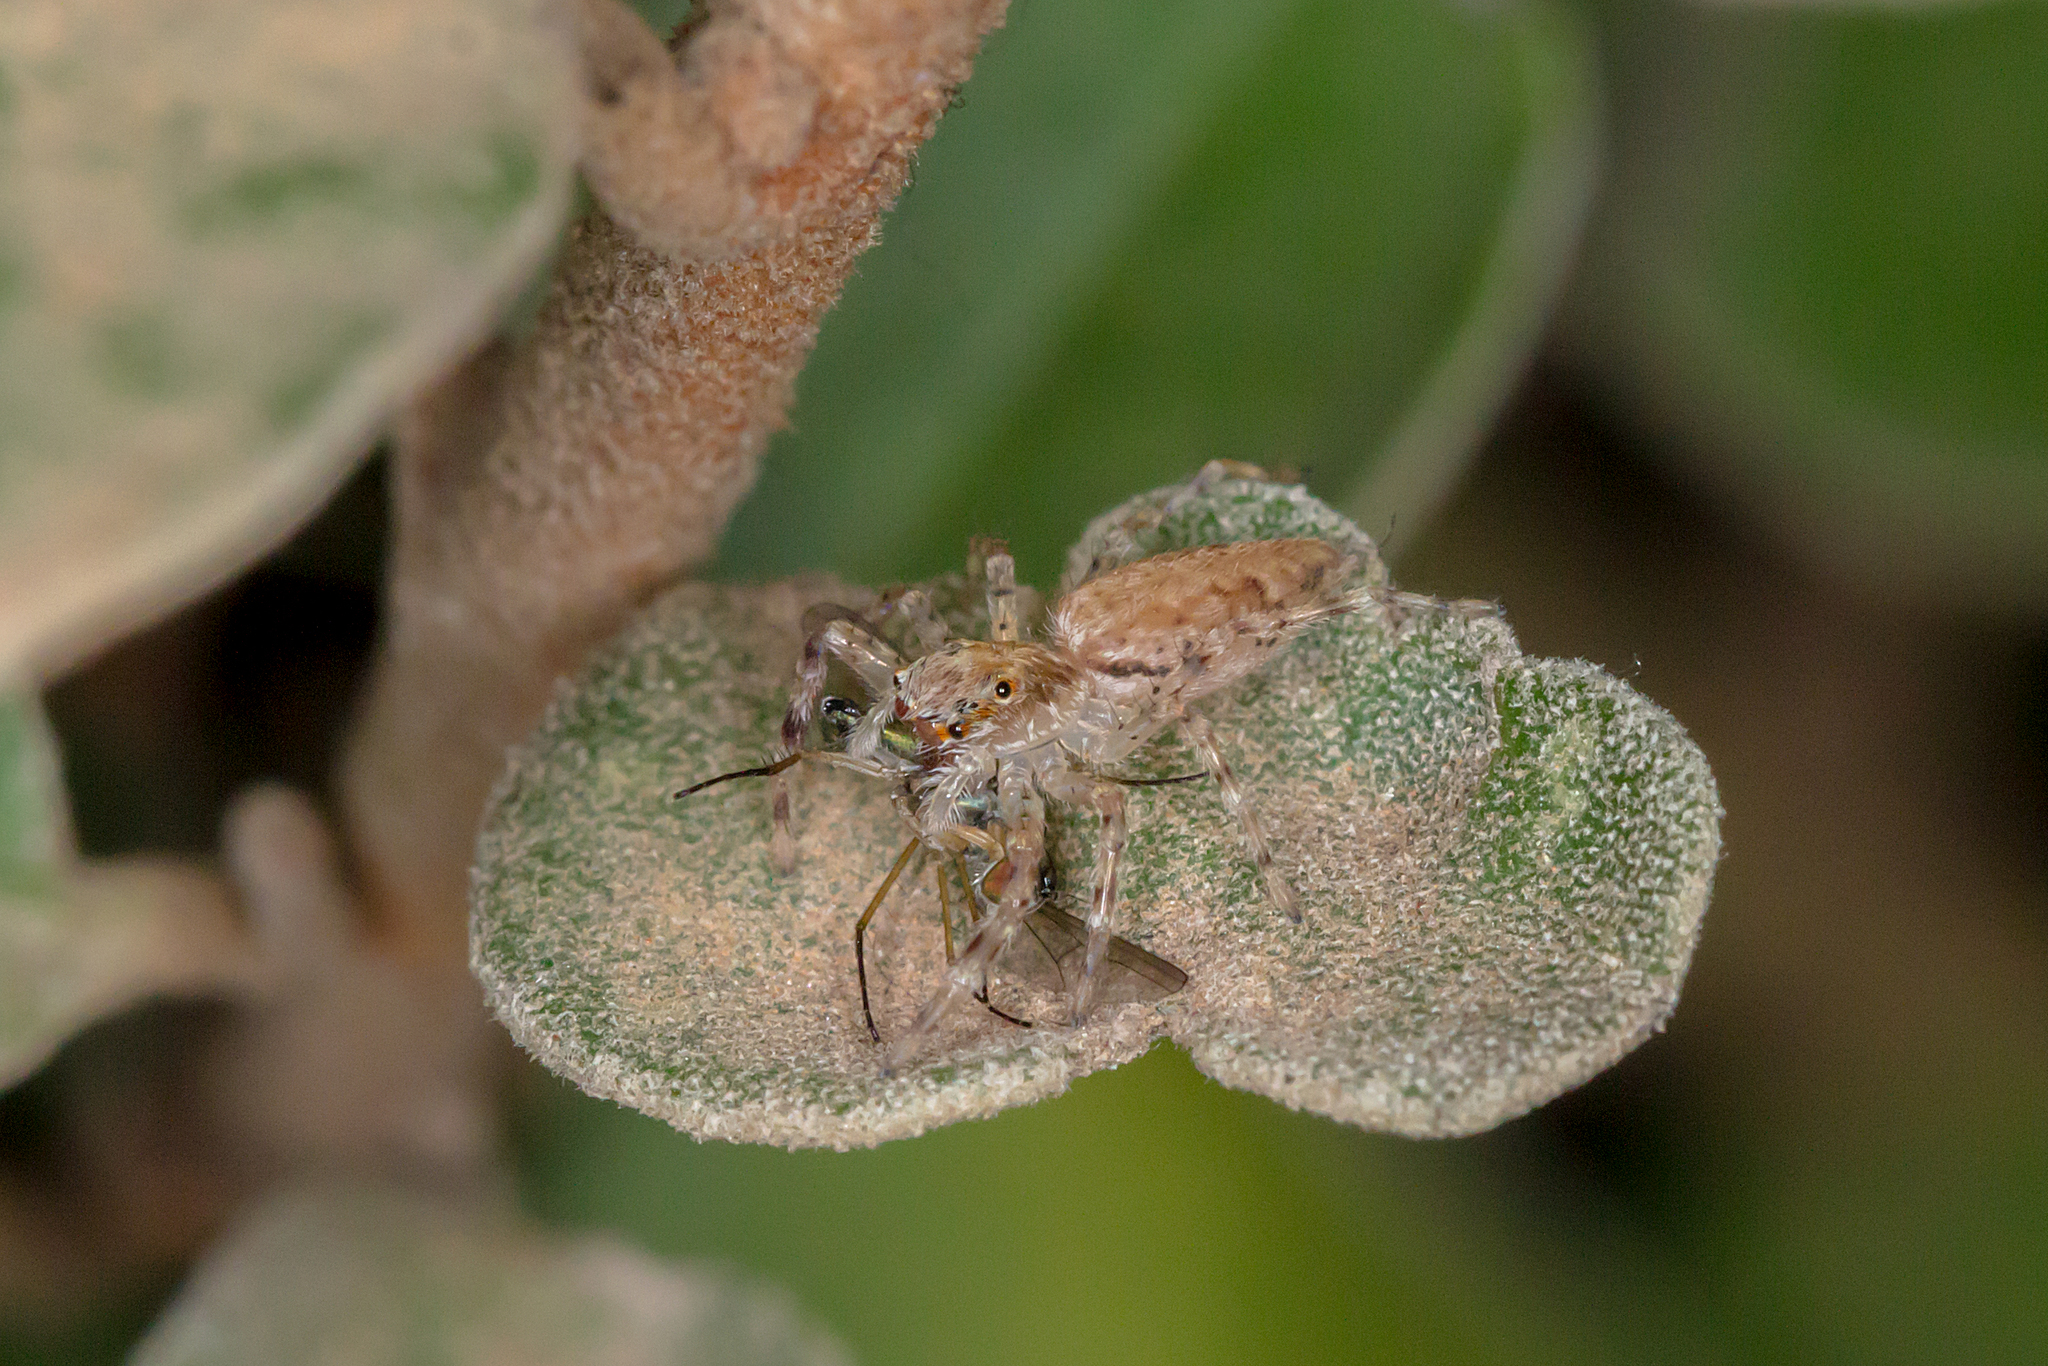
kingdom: Animalia
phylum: Arthropoda
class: Arachnida
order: Araneae
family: Salticidae
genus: Helpis
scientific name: Helpis minitabunda
